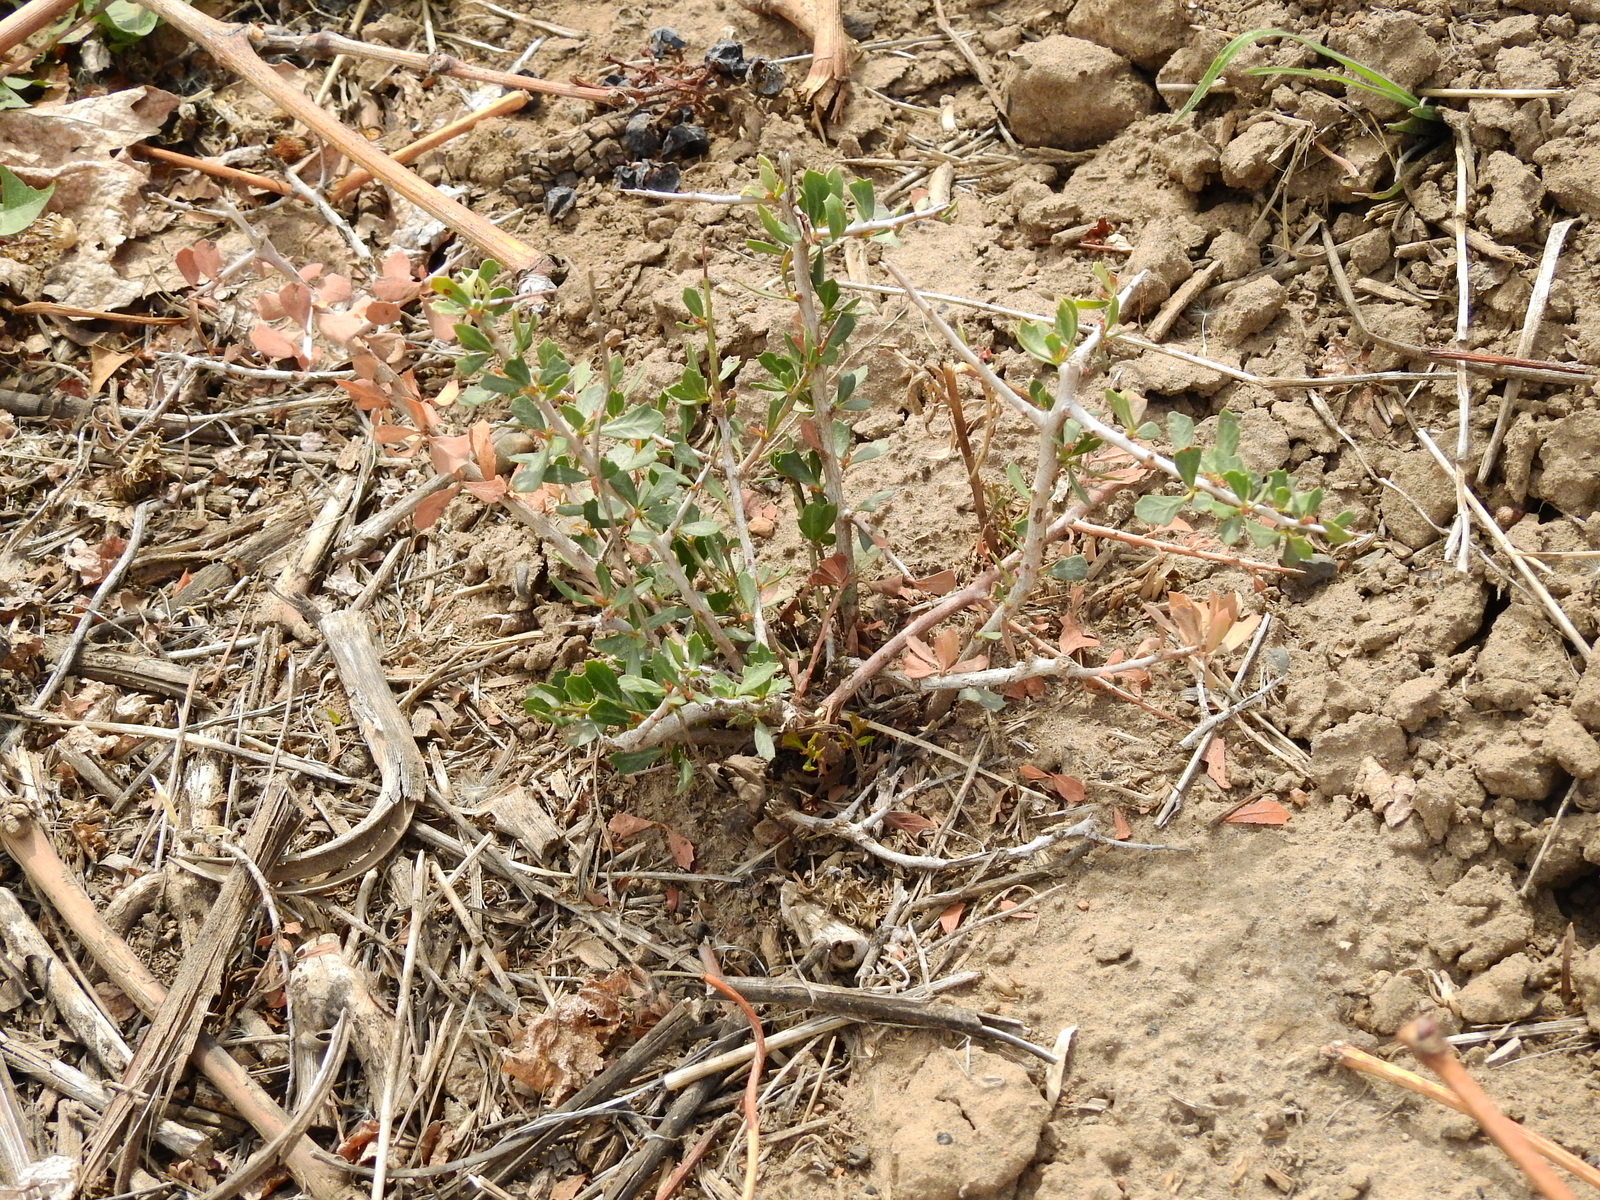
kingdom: Plantae
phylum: Tracheophyta
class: Magnoliopsida
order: Sapindales
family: Anacardiaceae
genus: Schinus
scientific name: Schinus johnstonii
